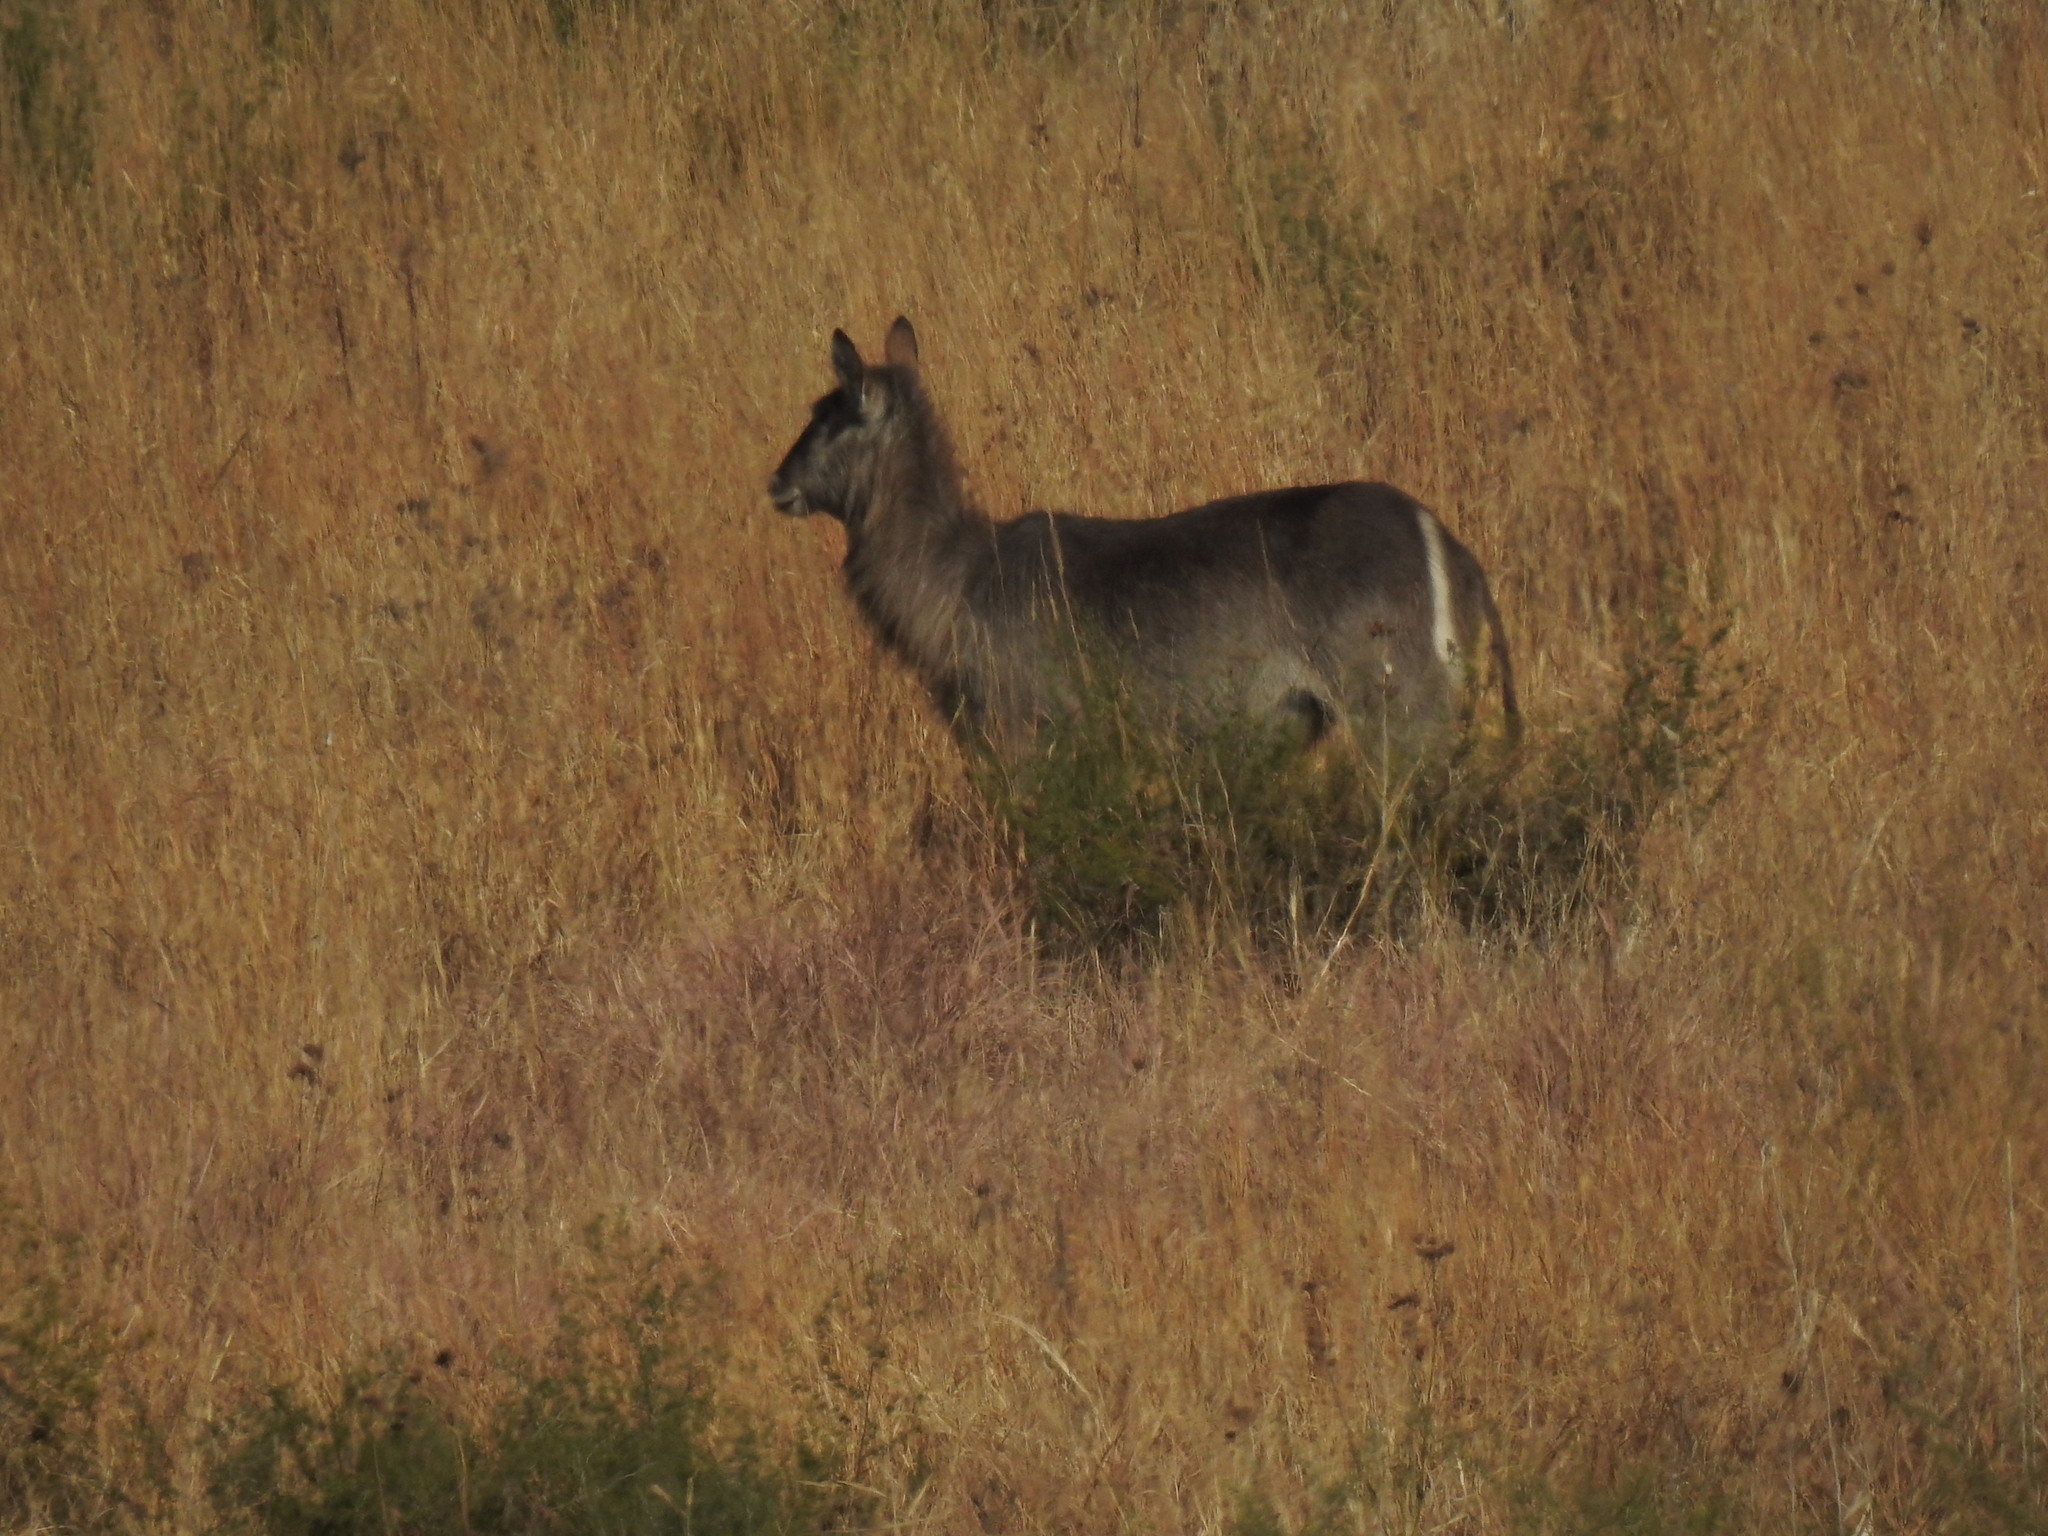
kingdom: Animalia
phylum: Chordata
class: Mammalia
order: Artiodactyla
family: Bovidae
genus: Kobus
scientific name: Kobus ellipsiprymnus
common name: Waterbuck
